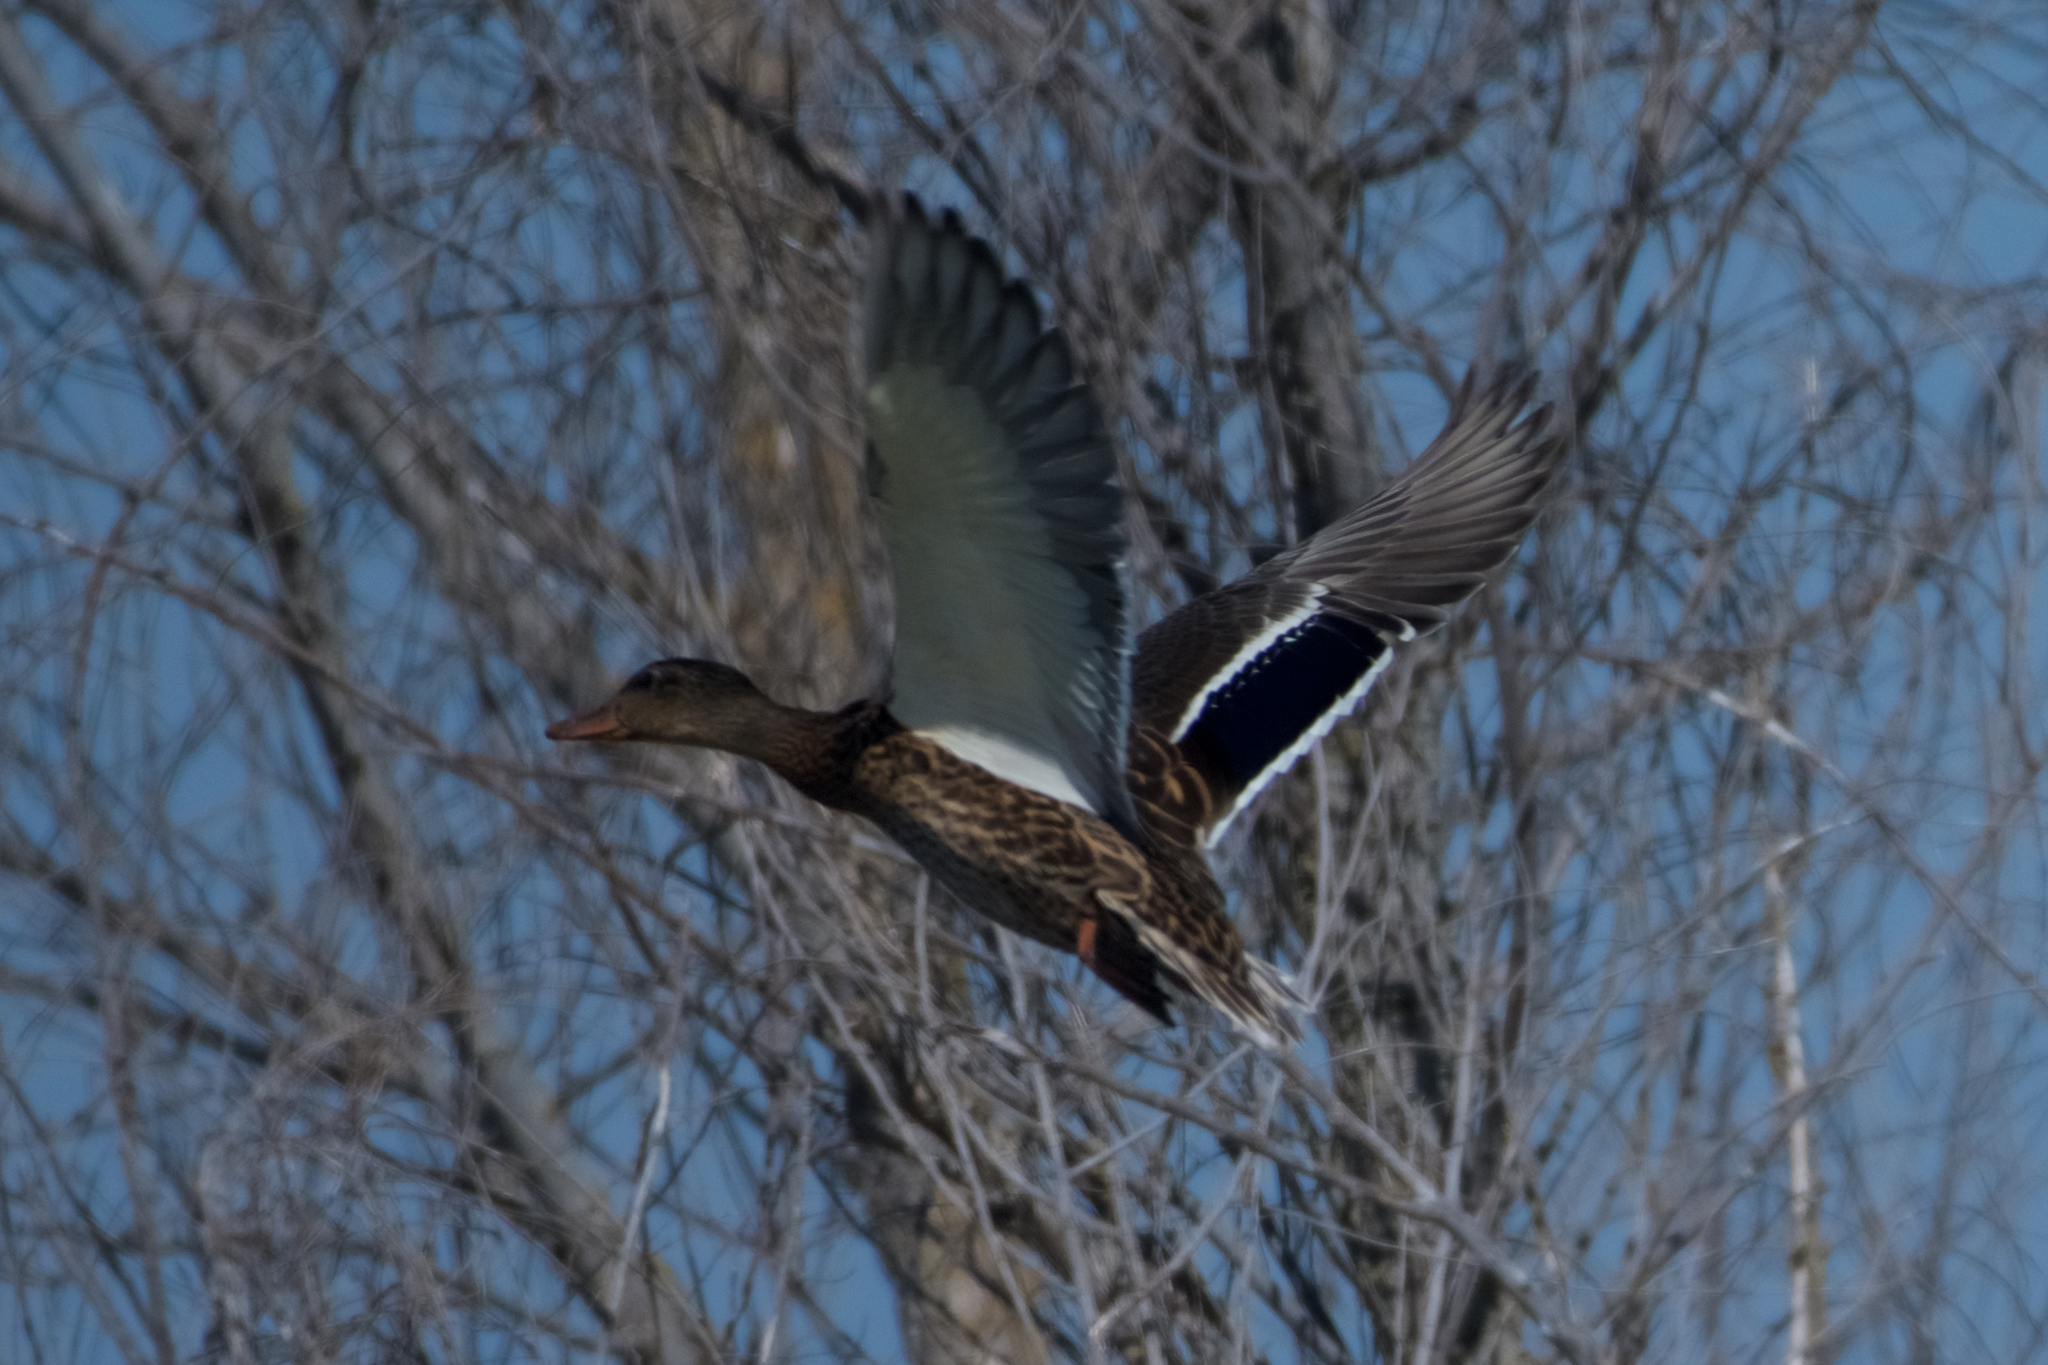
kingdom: Animalia
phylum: Chordata
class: Aves
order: Anseriformes
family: Anatidae
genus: Anas
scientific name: Anas platyrhynchos
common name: Mallard
